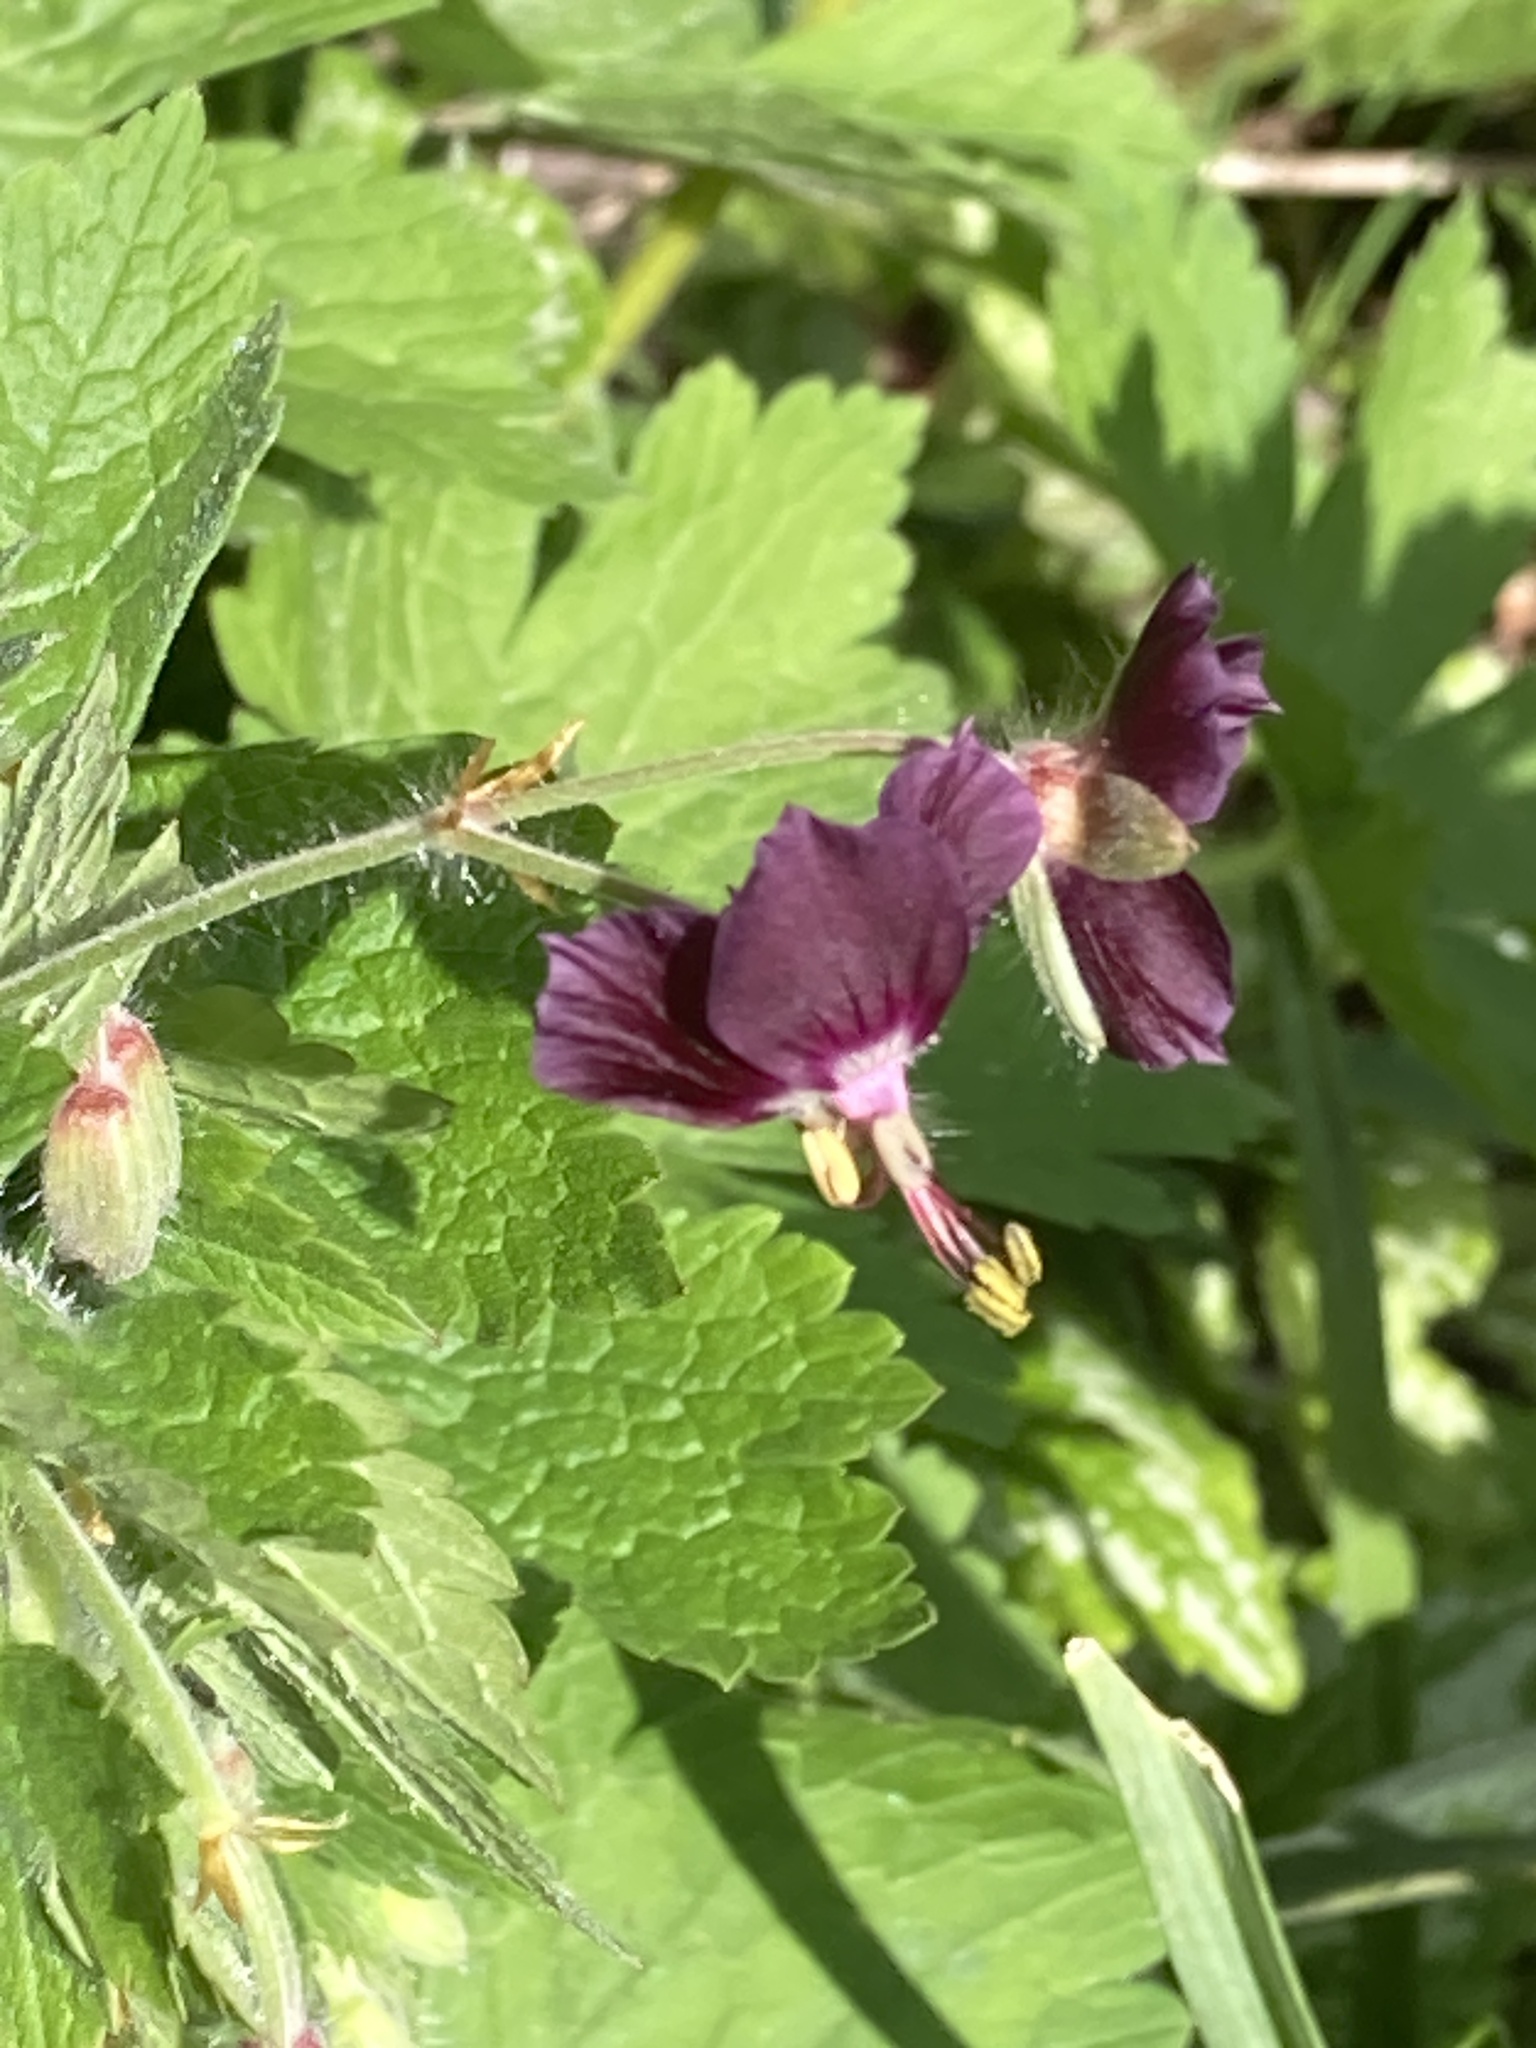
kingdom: Plantae
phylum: Tracheophyta
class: Magnoliopsida
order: Geraniales
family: Geraniaceae
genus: Geranium
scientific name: Geranium phaeum
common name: Dusky crane's-bill
